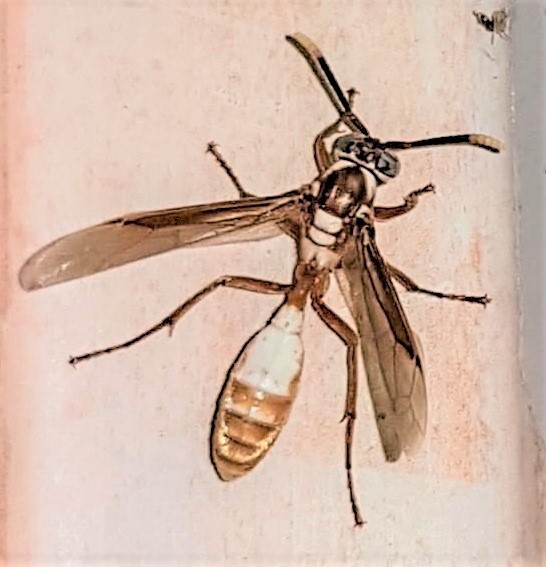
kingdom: Animalia
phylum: Arthropoda
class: Insecta
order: Hymenoptera
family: Vespidae
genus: Apoica
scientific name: Apoica pallens
